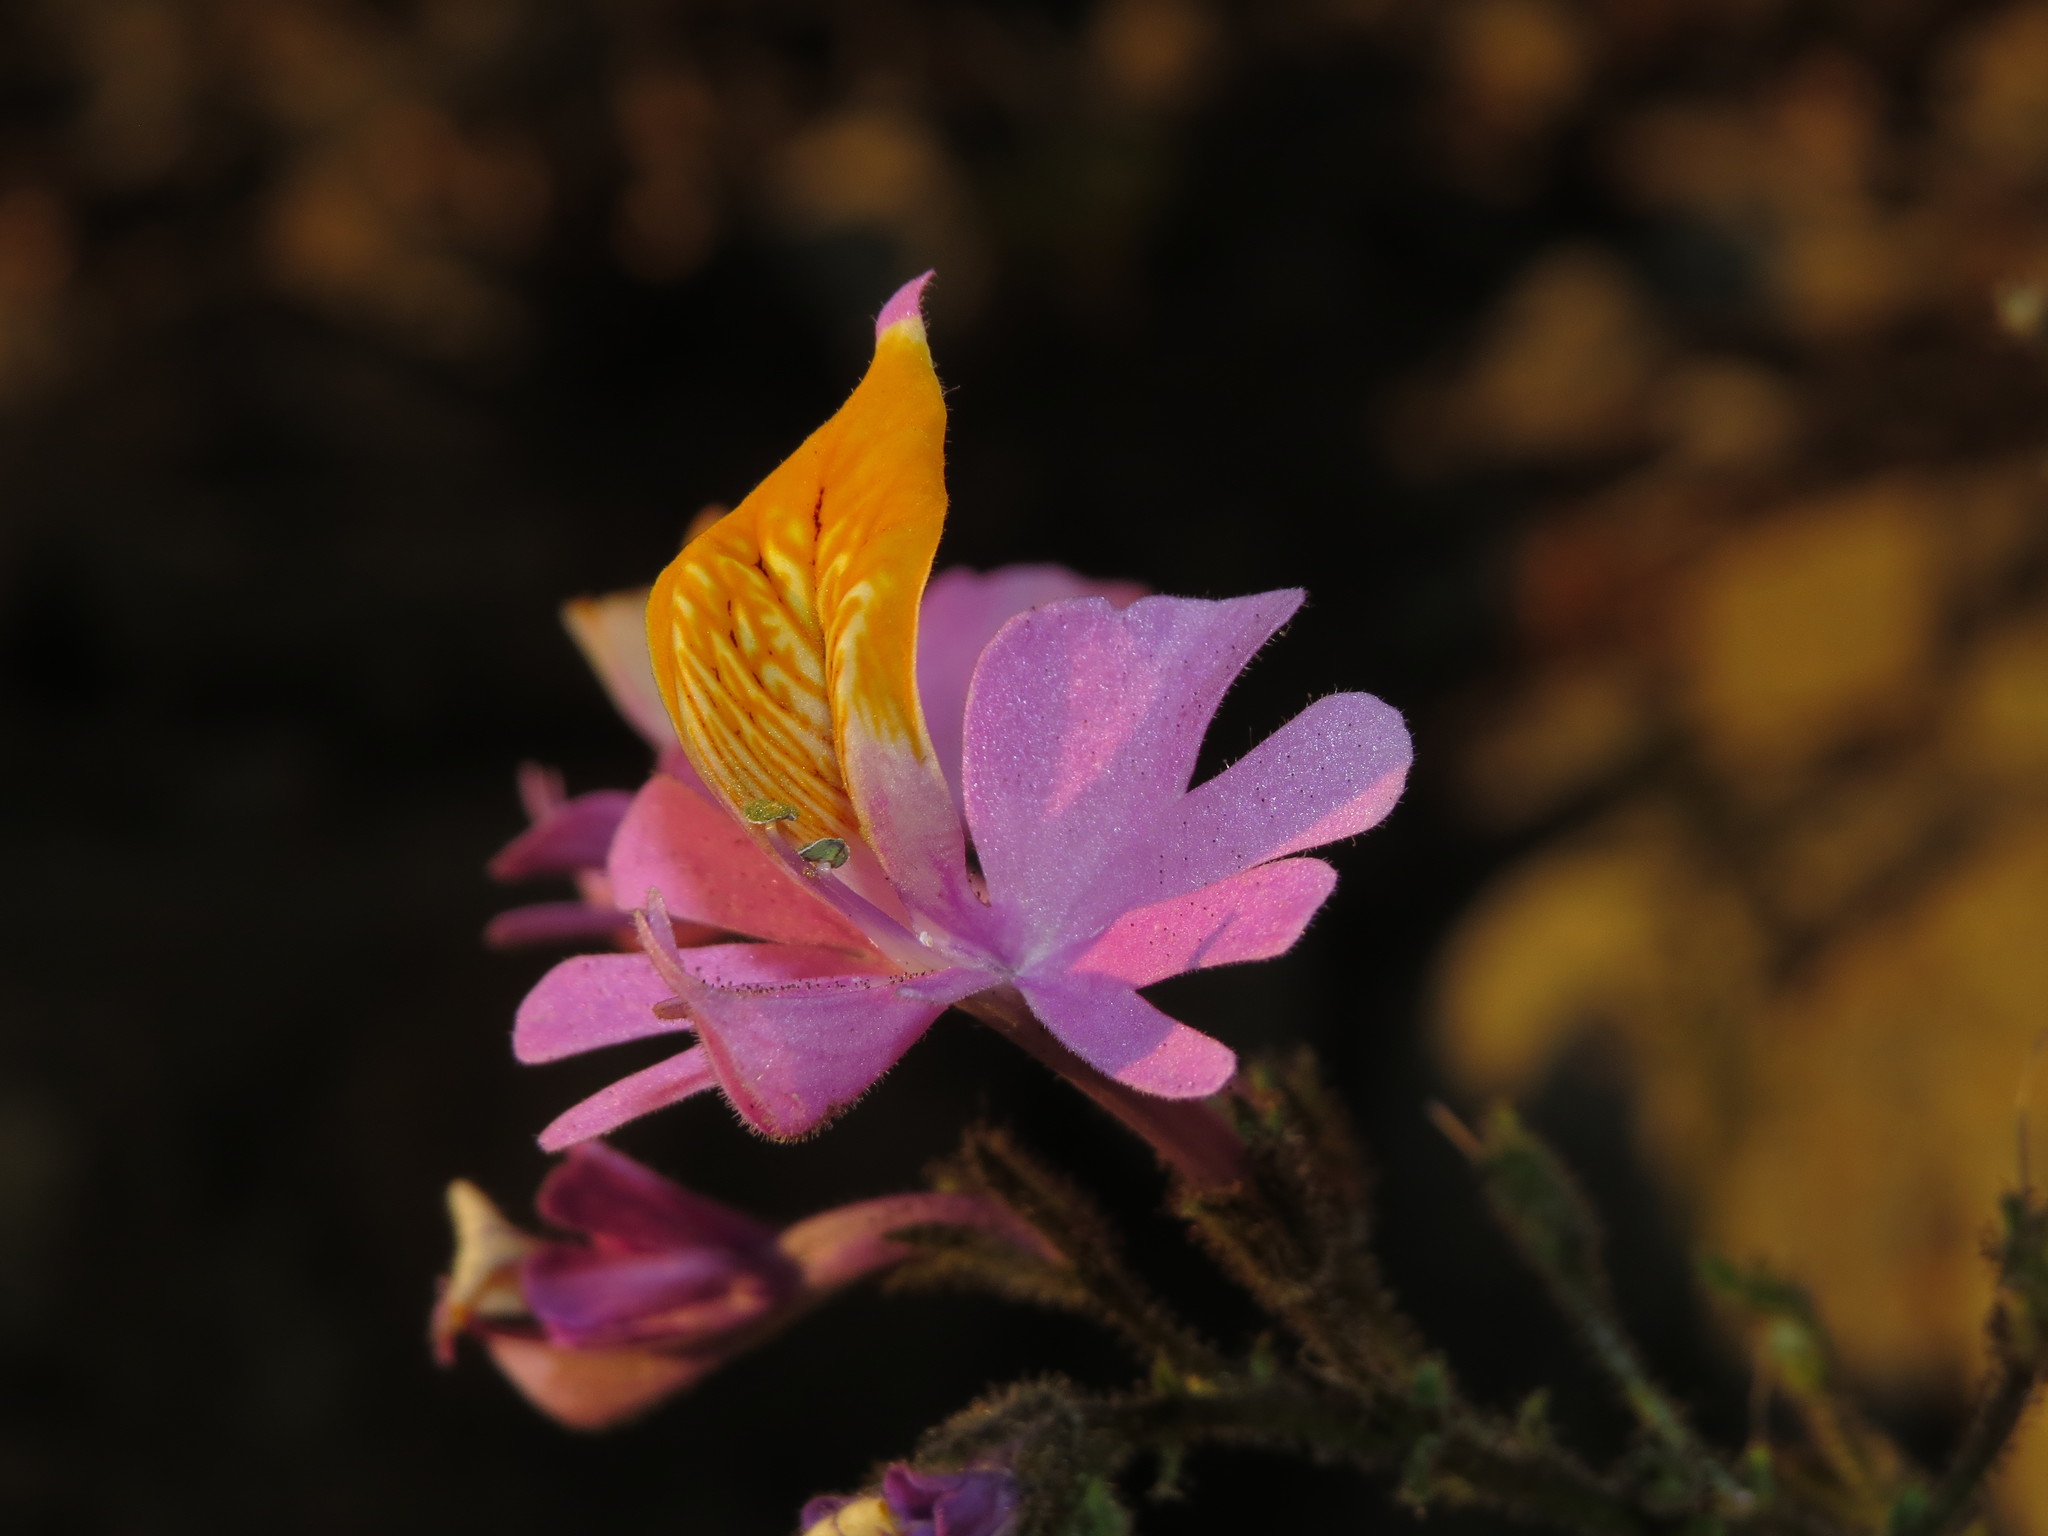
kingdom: Plantae
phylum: Tracheophyta
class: Magnoliopsida
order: Solanales
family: Solanaceae
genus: Schizanthus
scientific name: Schizanthus hookeri
